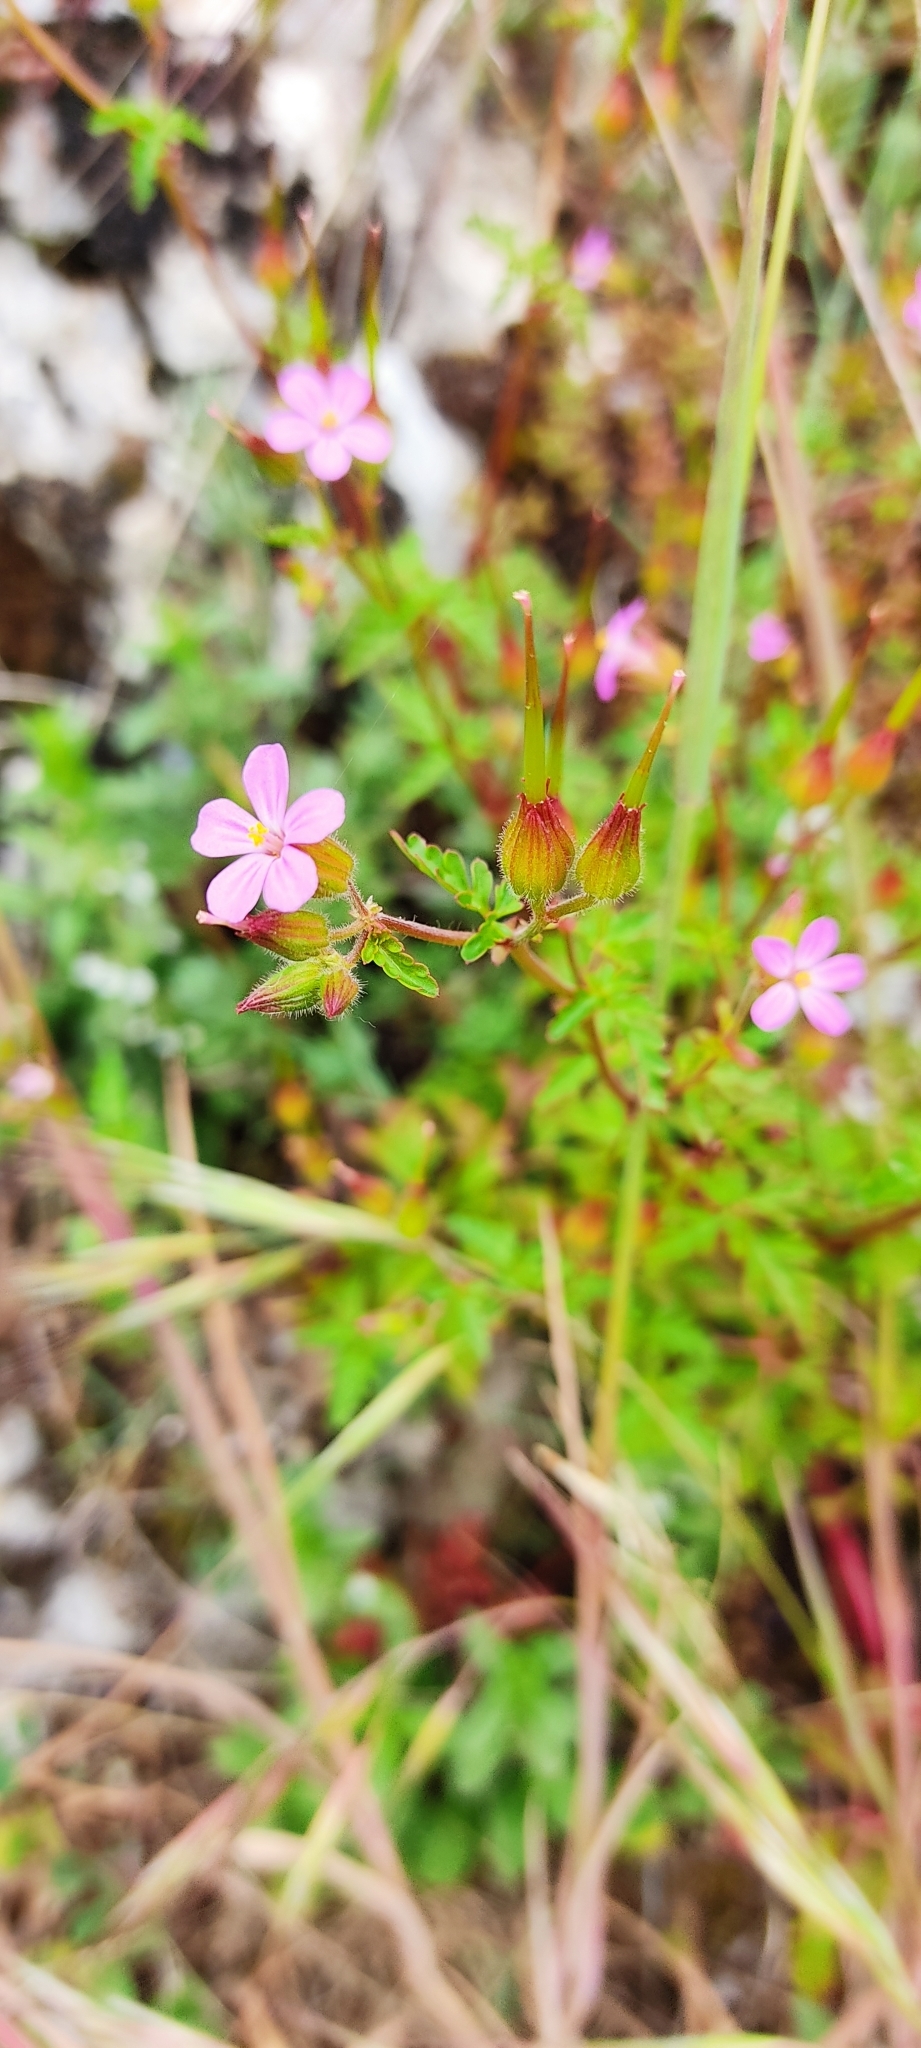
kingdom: Plantae
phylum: Tracheophyta
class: Magnoliopsida
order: Geraniales
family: Geraniaceae
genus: Geranium
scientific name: Geranium purpureum
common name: Little-robin
